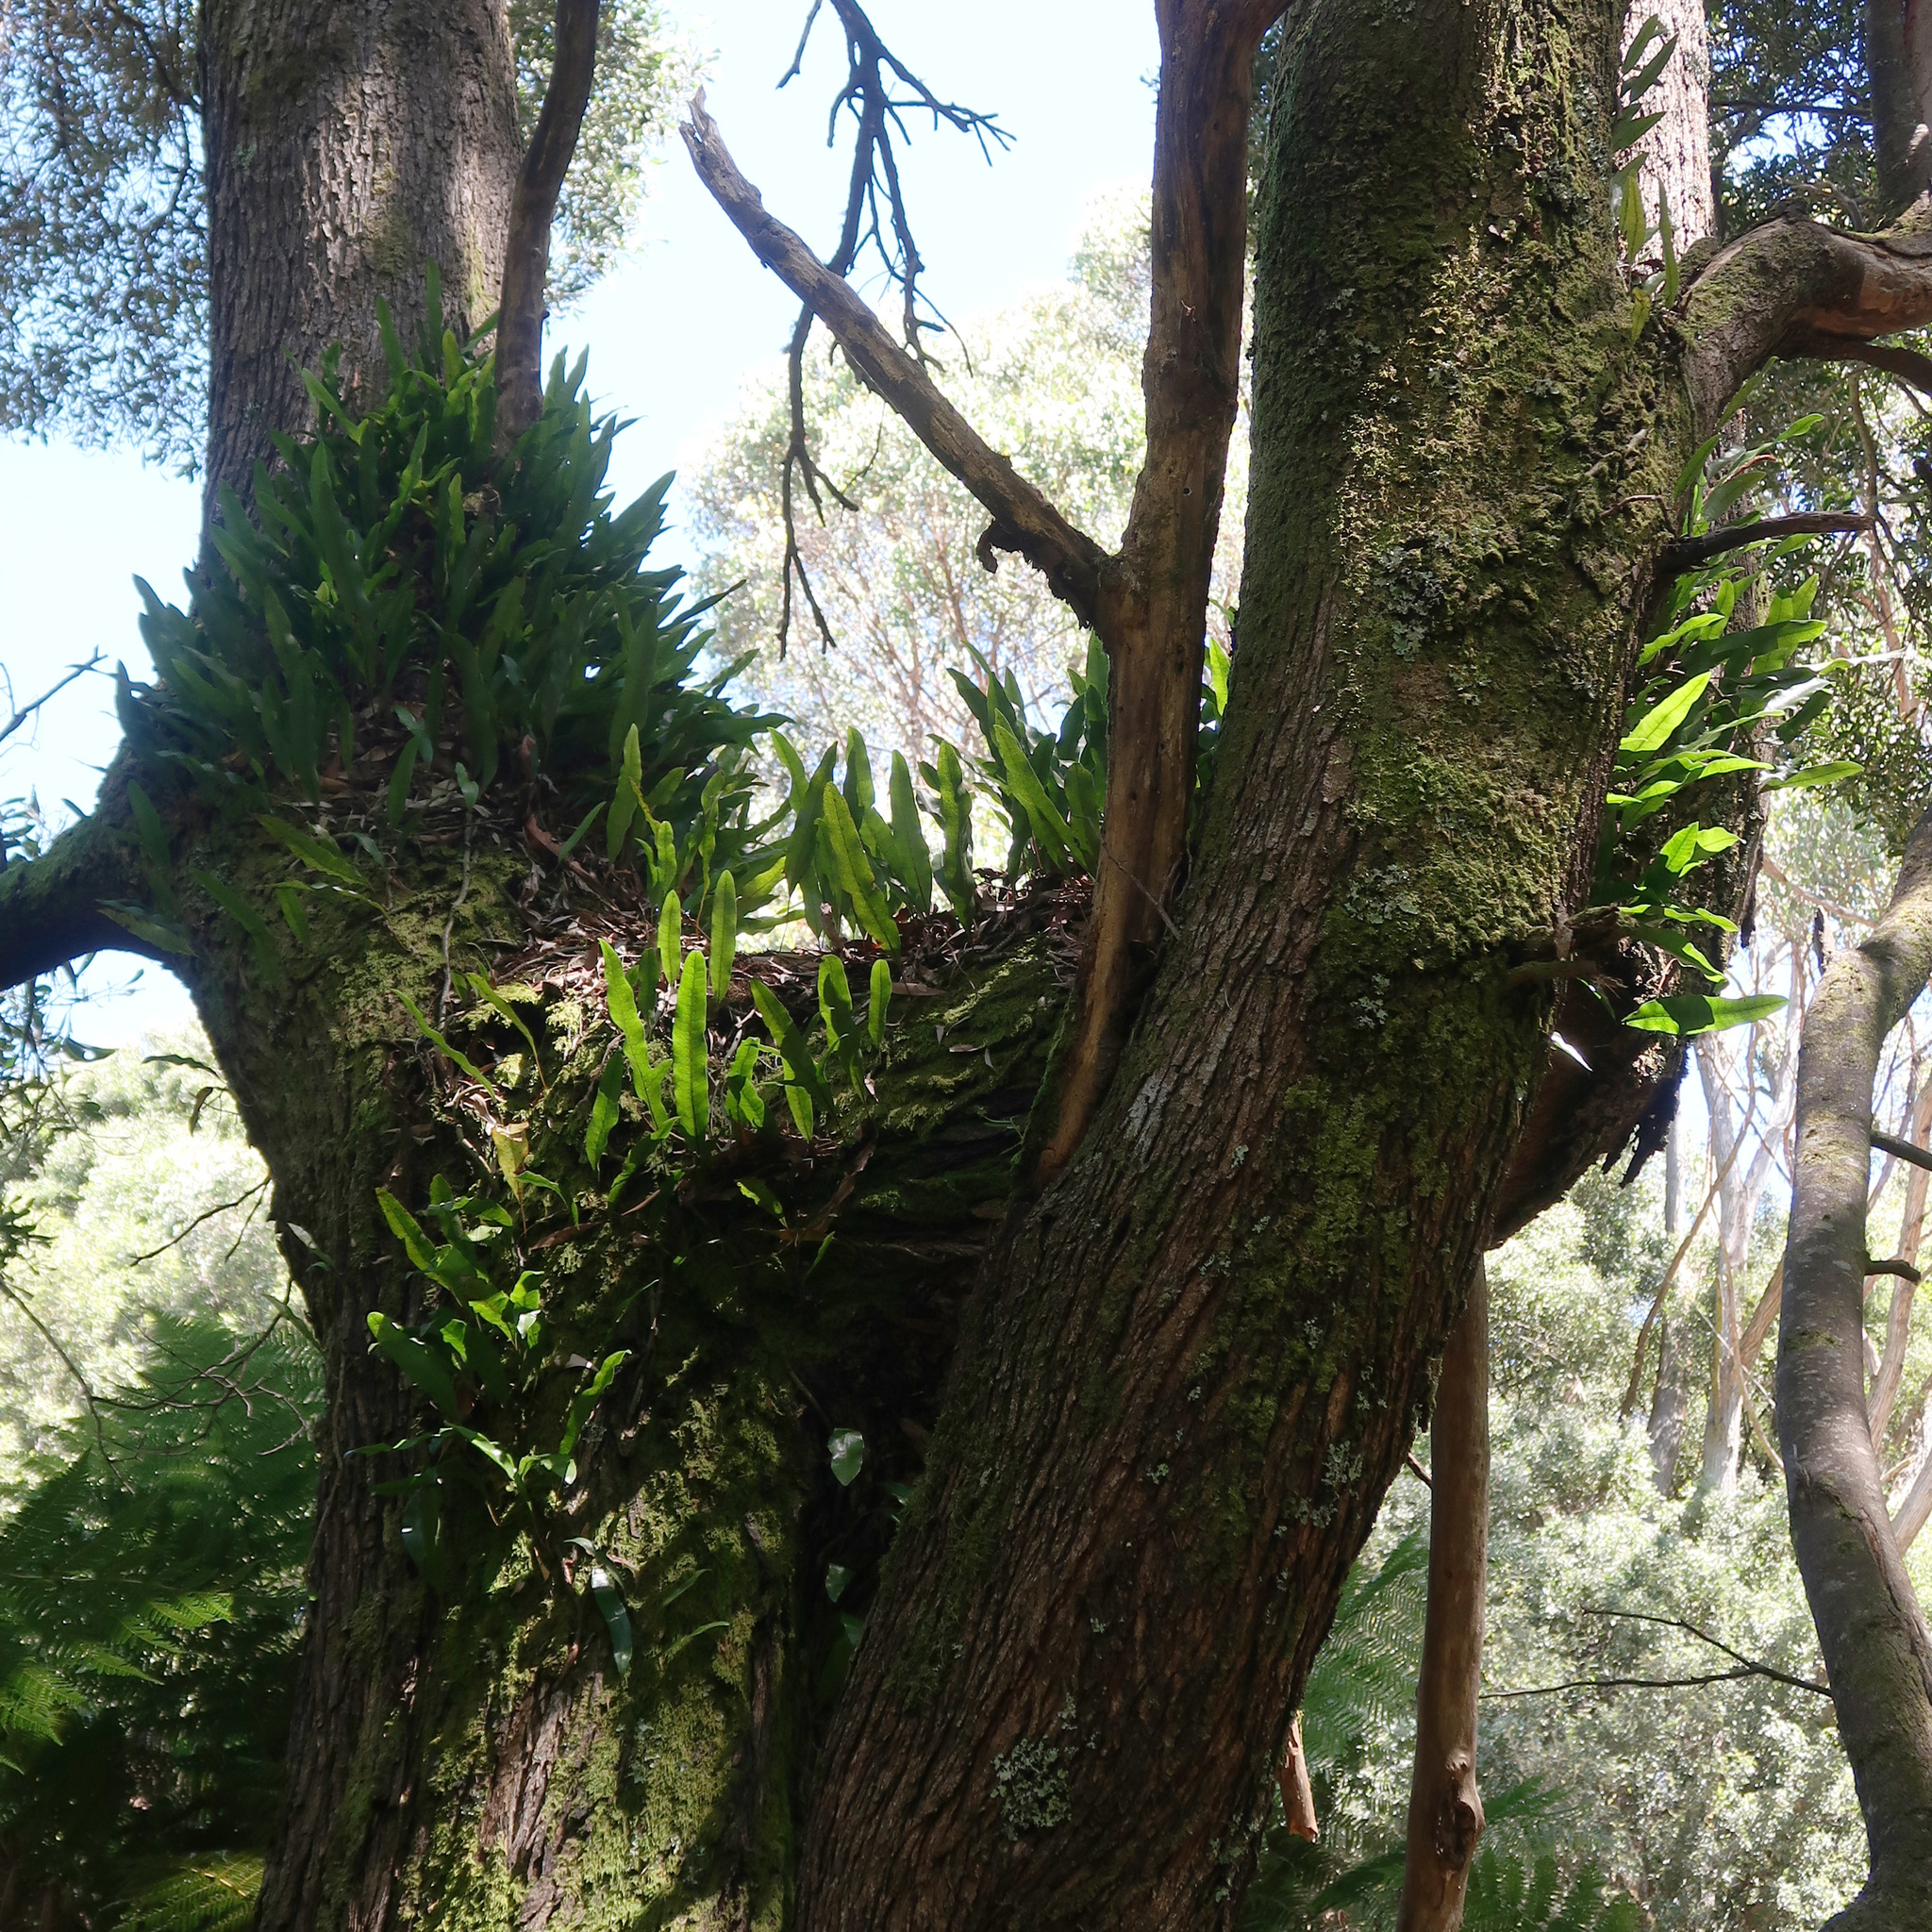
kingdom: Plantae
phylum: Tracheophyta
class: Polypodiopsida
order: Polypodiales
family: Polypodiaceae
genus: Lecanopteris
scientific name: Lecanopteris pustulata
